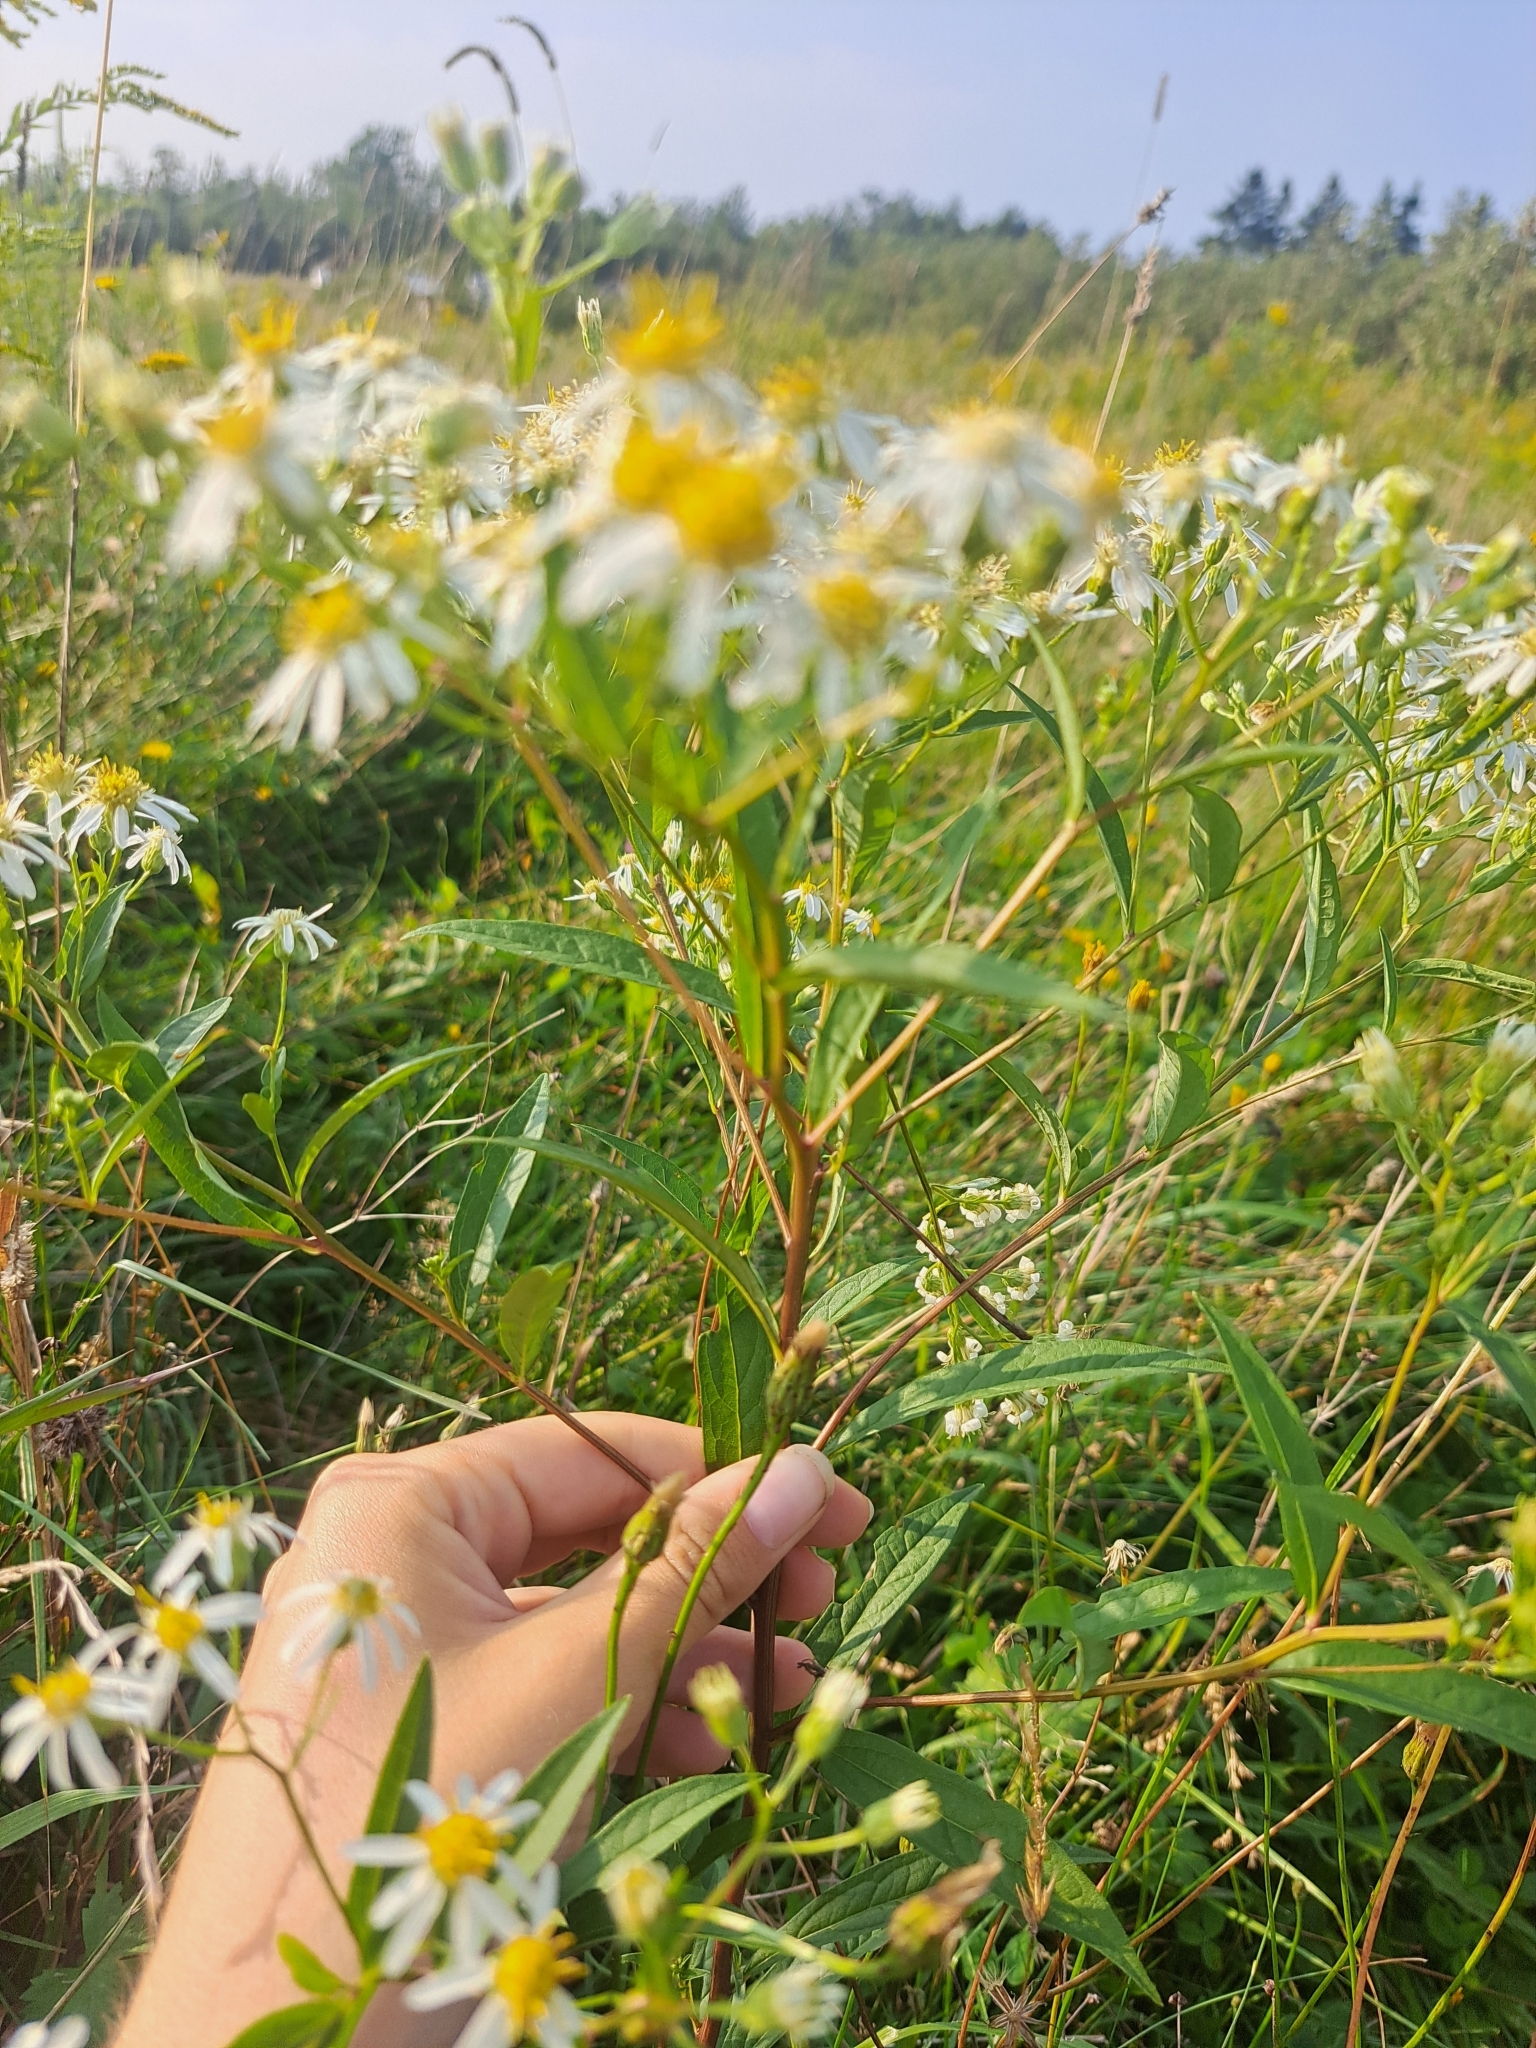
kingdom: Plantae
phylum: Tracheophyta
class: Magnoliopsida
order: Asterales
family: Asteraceae
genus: Doellingeria
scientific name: Doellingeria umbellata
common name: Flat-top white aster
